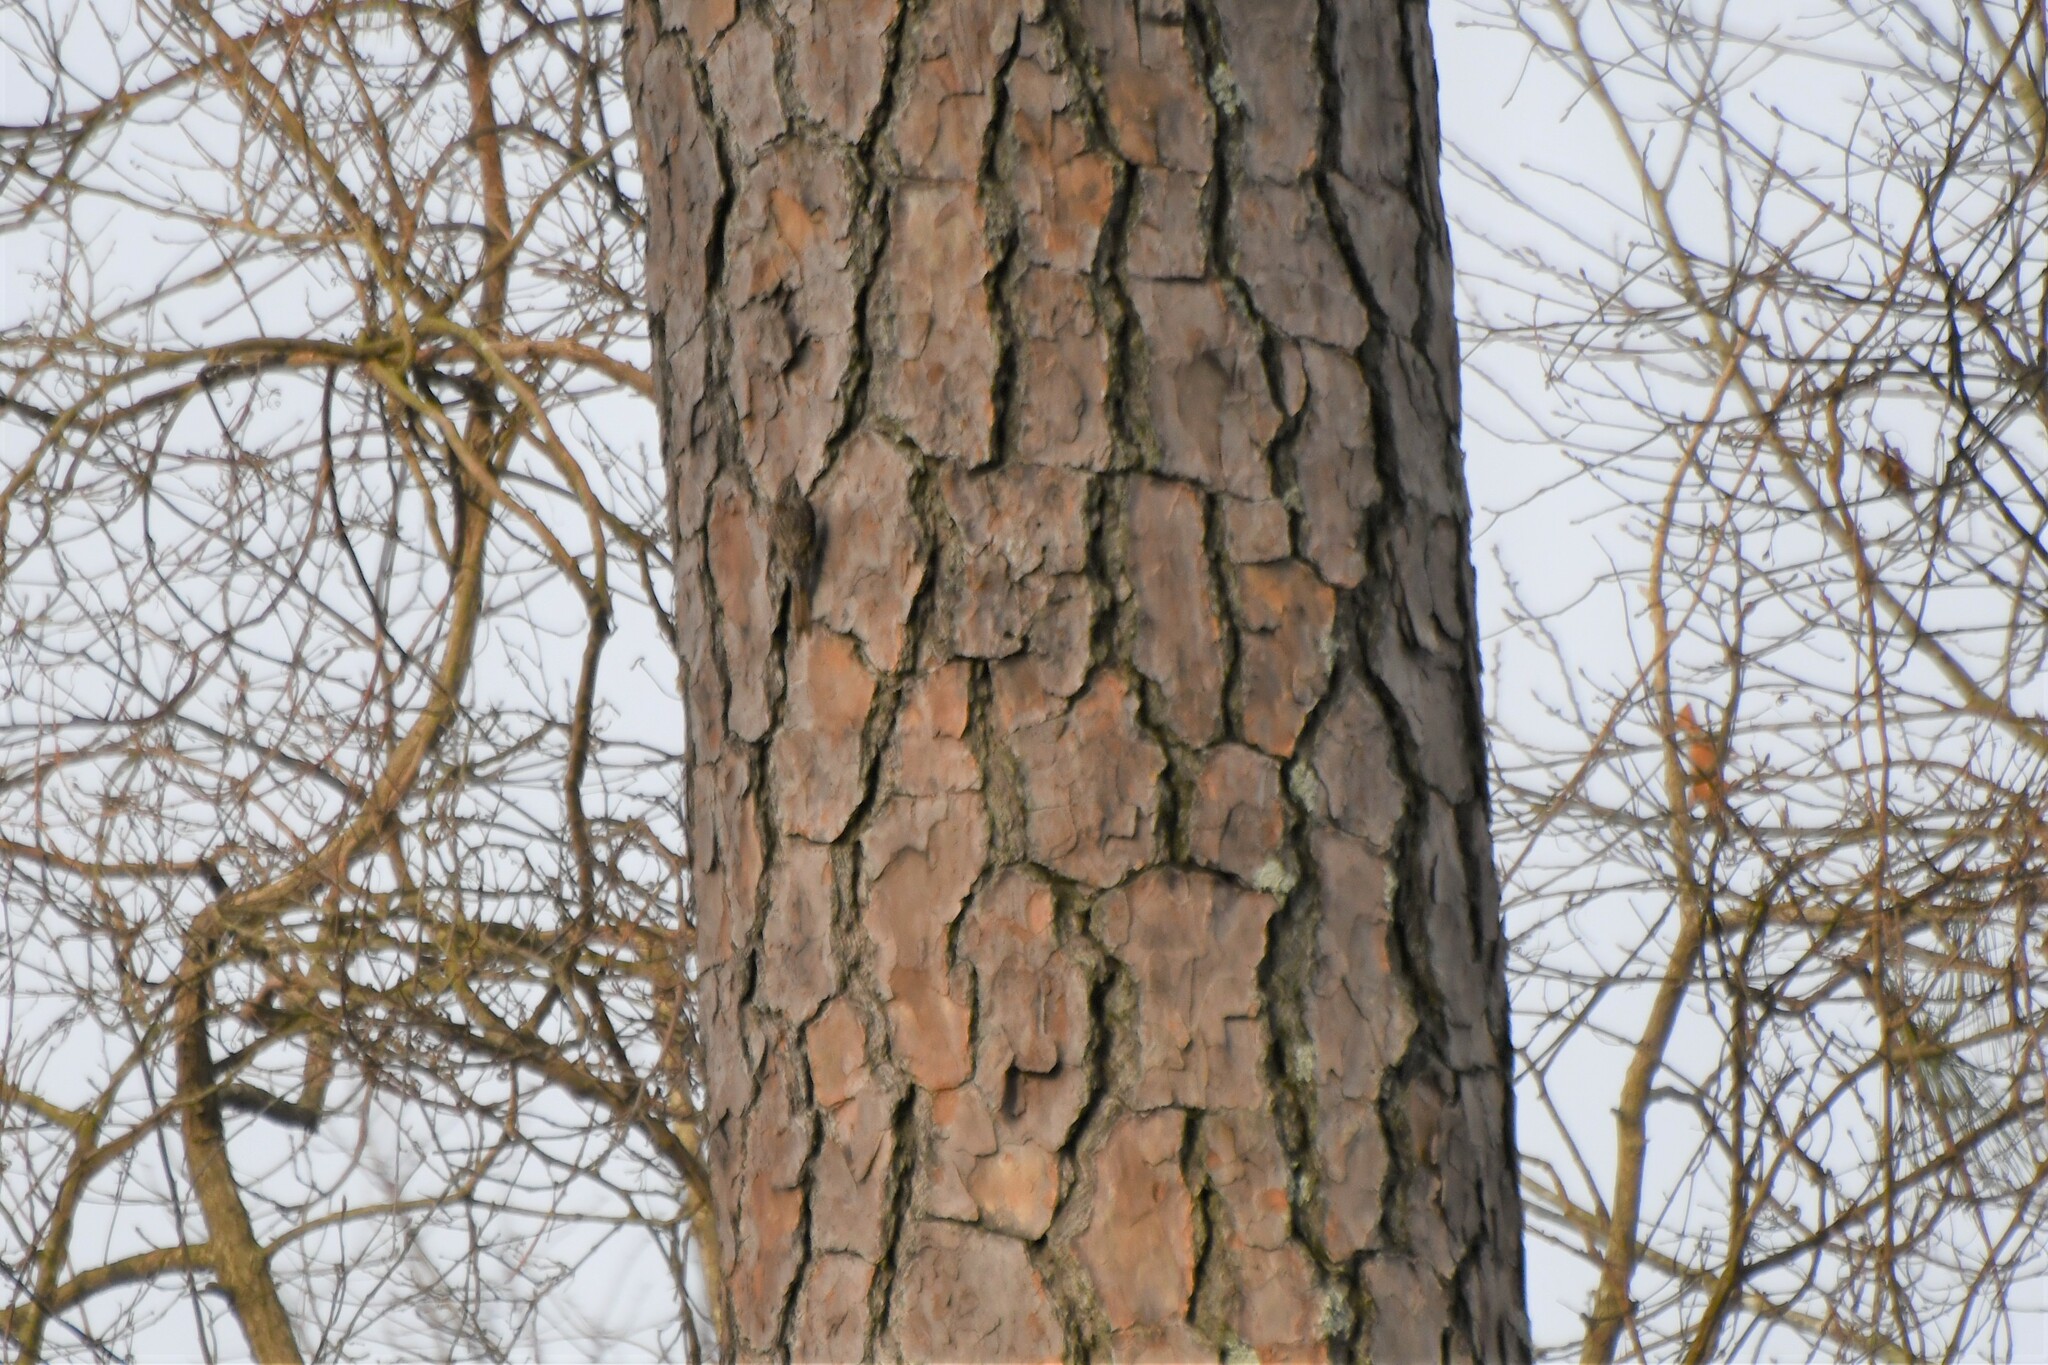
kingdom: Animalia
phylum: Chordata
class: Aves
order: Passeriformes
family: Certhiidae
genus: Certhia
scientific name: Certhia americana
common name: Brown creeper
